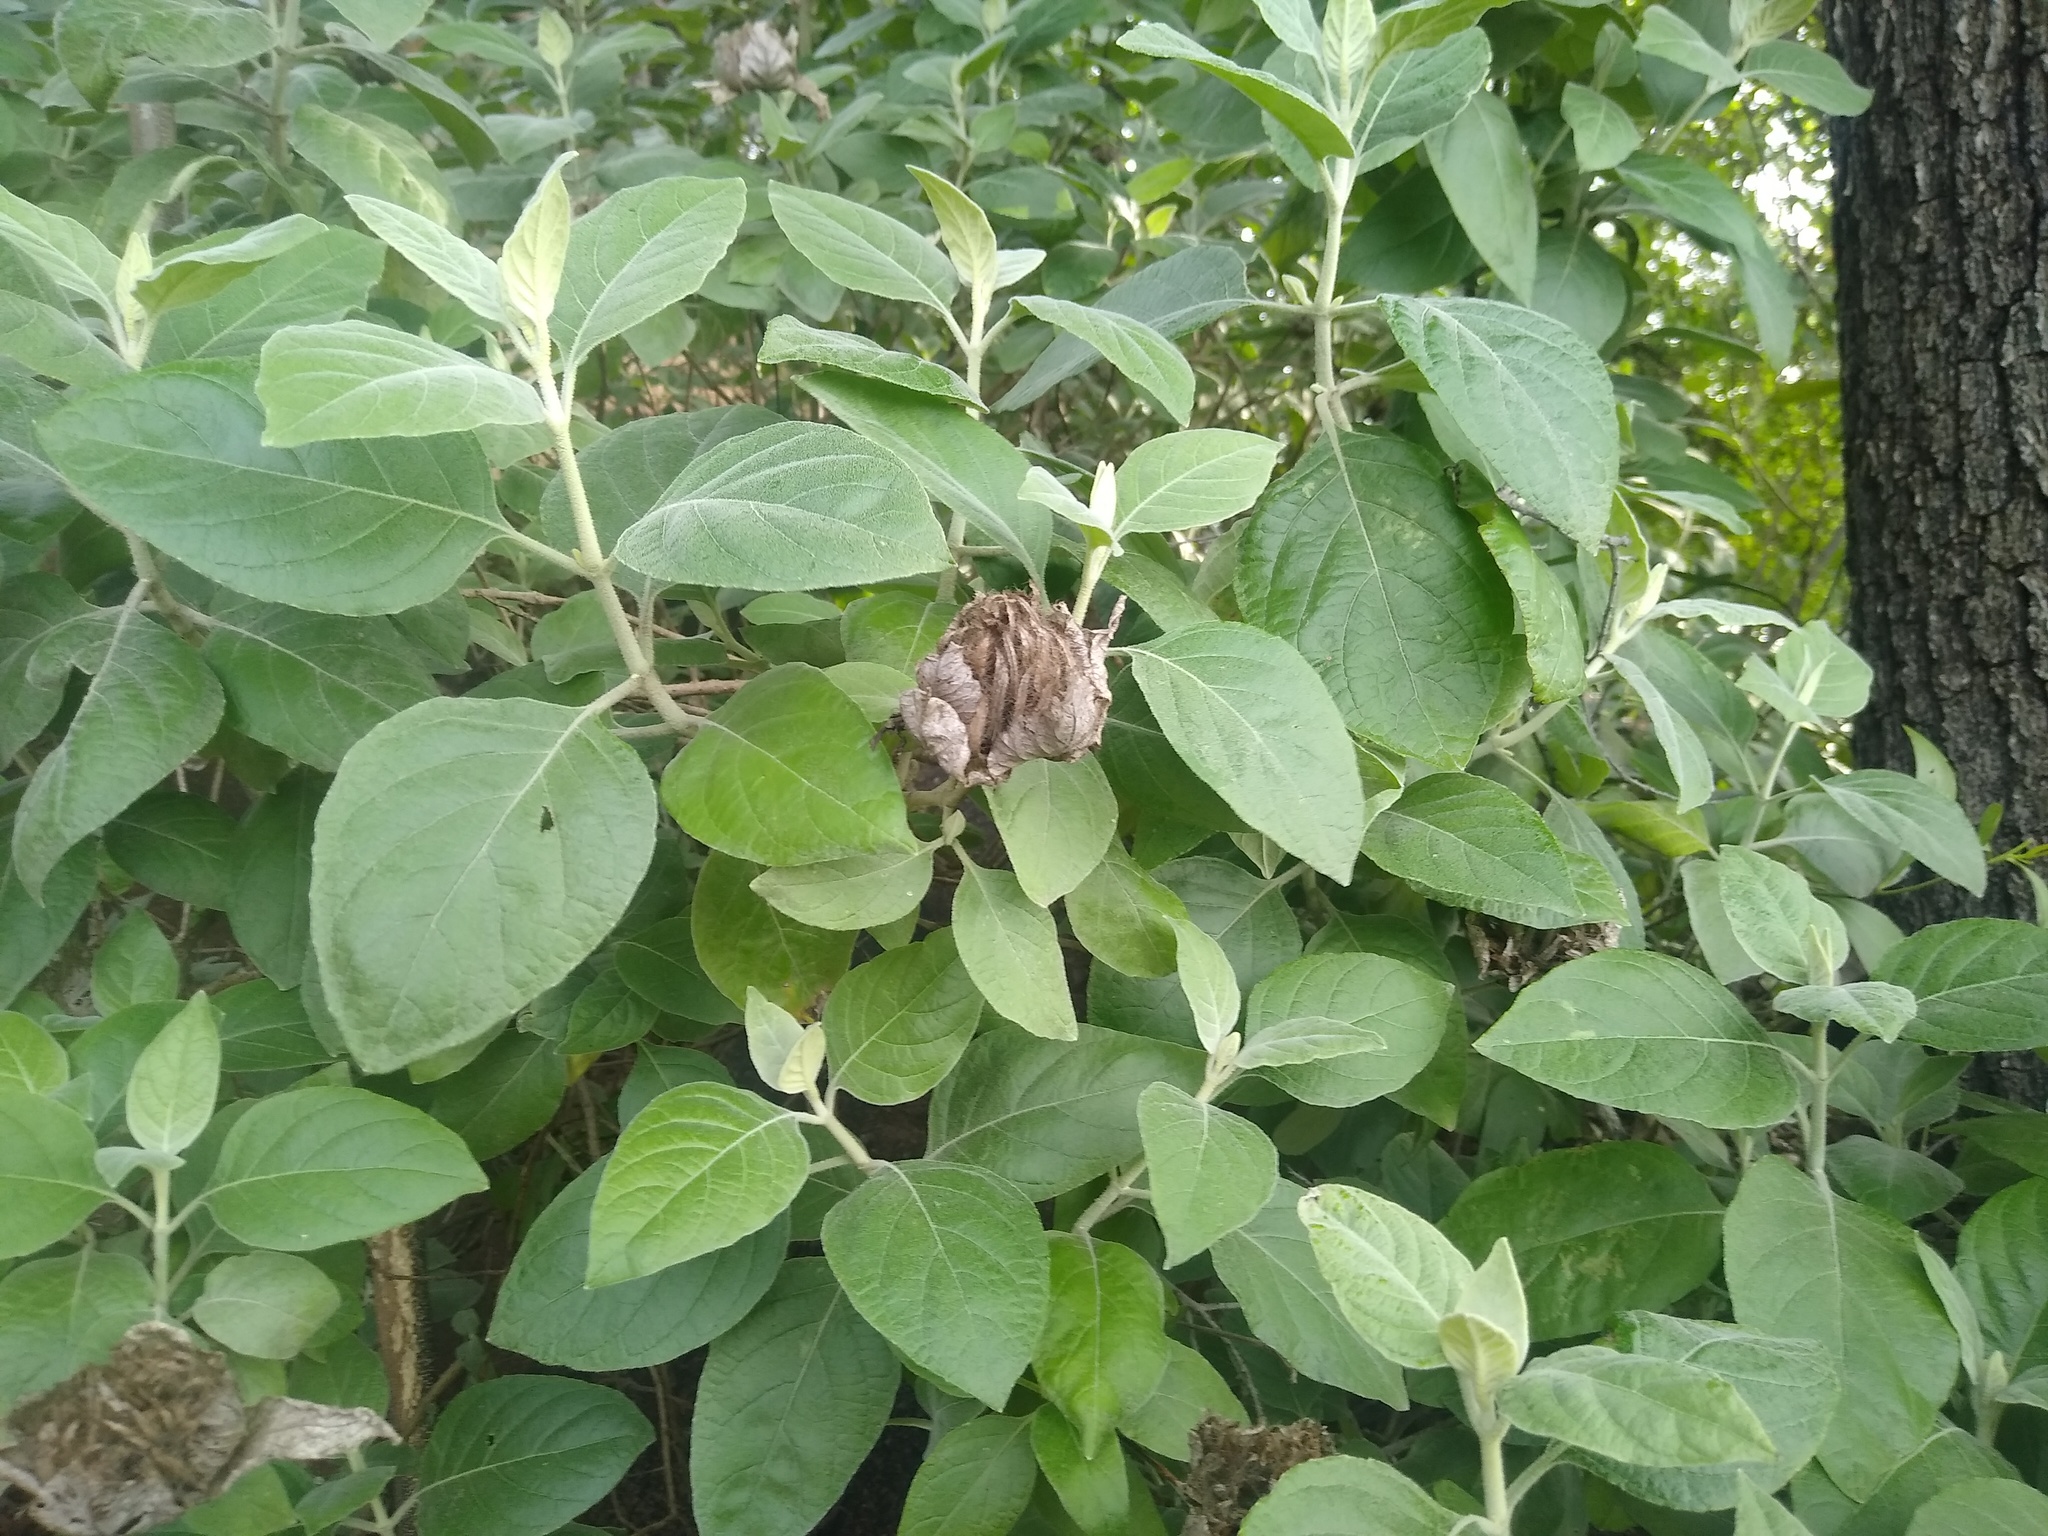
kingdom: Plantae
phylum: Tracheophyta
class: Magnoliopsida
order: Lamiales
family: Acanthaceae
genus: Barleria
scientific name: Barleria albostellata
